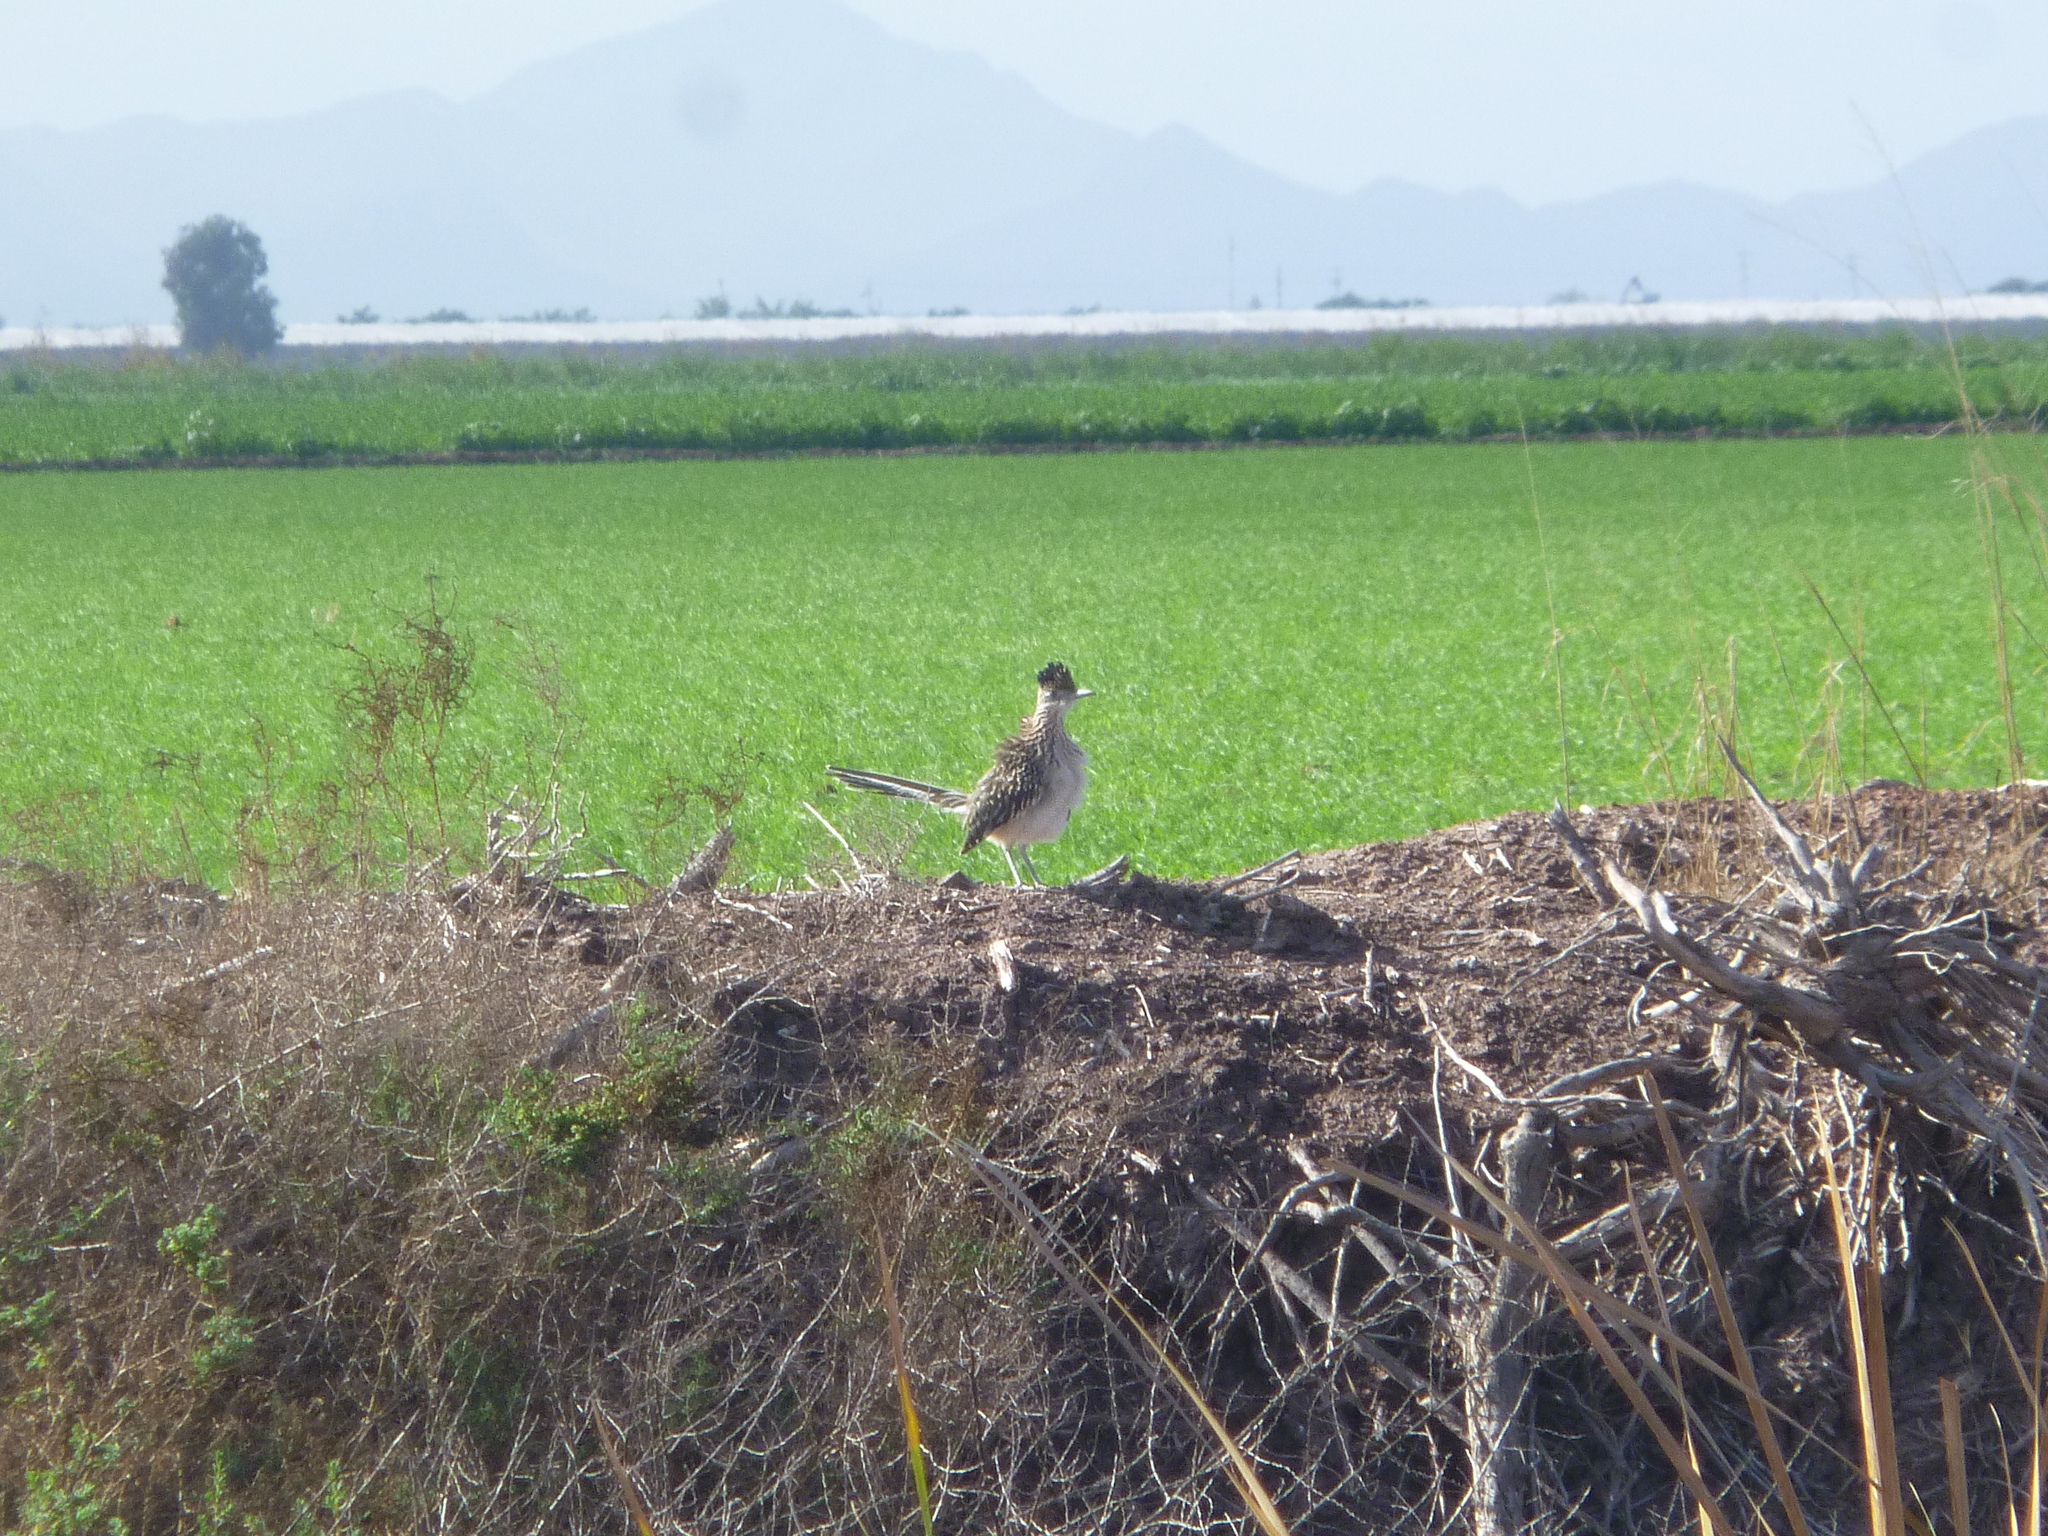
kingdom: Animalia
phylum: Chordata
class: Aves
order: Cuculiformes
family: Cuculidae
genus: Geococcyx
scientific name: Geococcyx californianus
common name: Greater roadrunner
